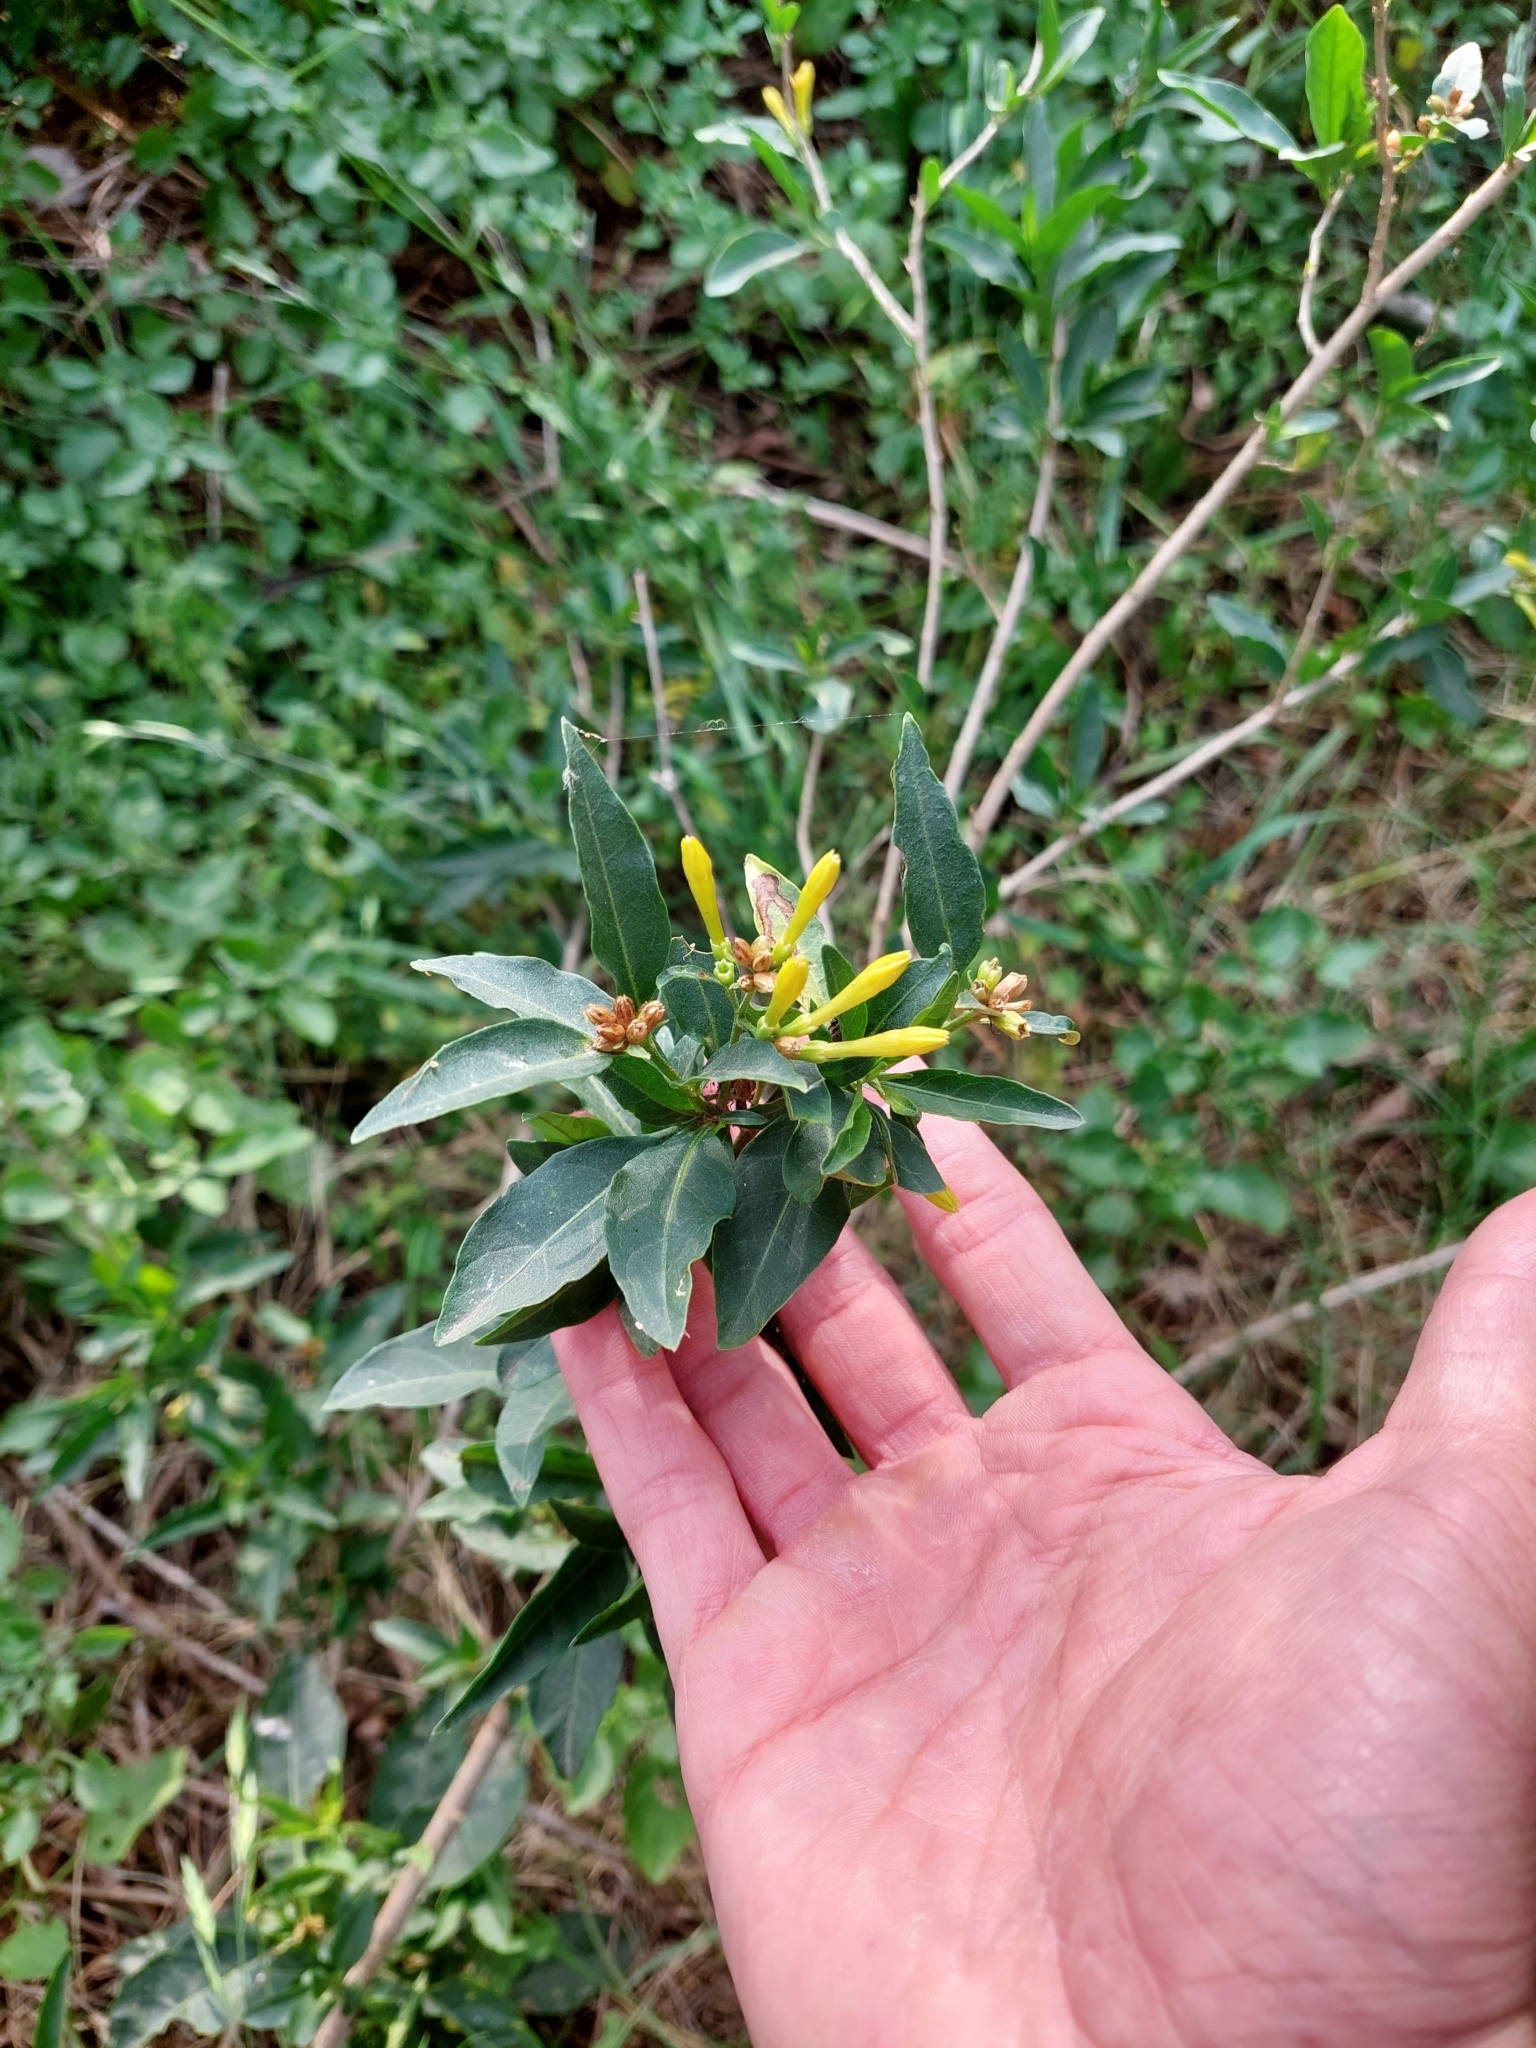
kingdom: Plantae
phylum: Tracheophyta
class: Magnoliopsida
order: Solanales
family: Solanaceae
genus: Cestrum
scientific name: Cestrum parqui
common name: Chilean cestrum
